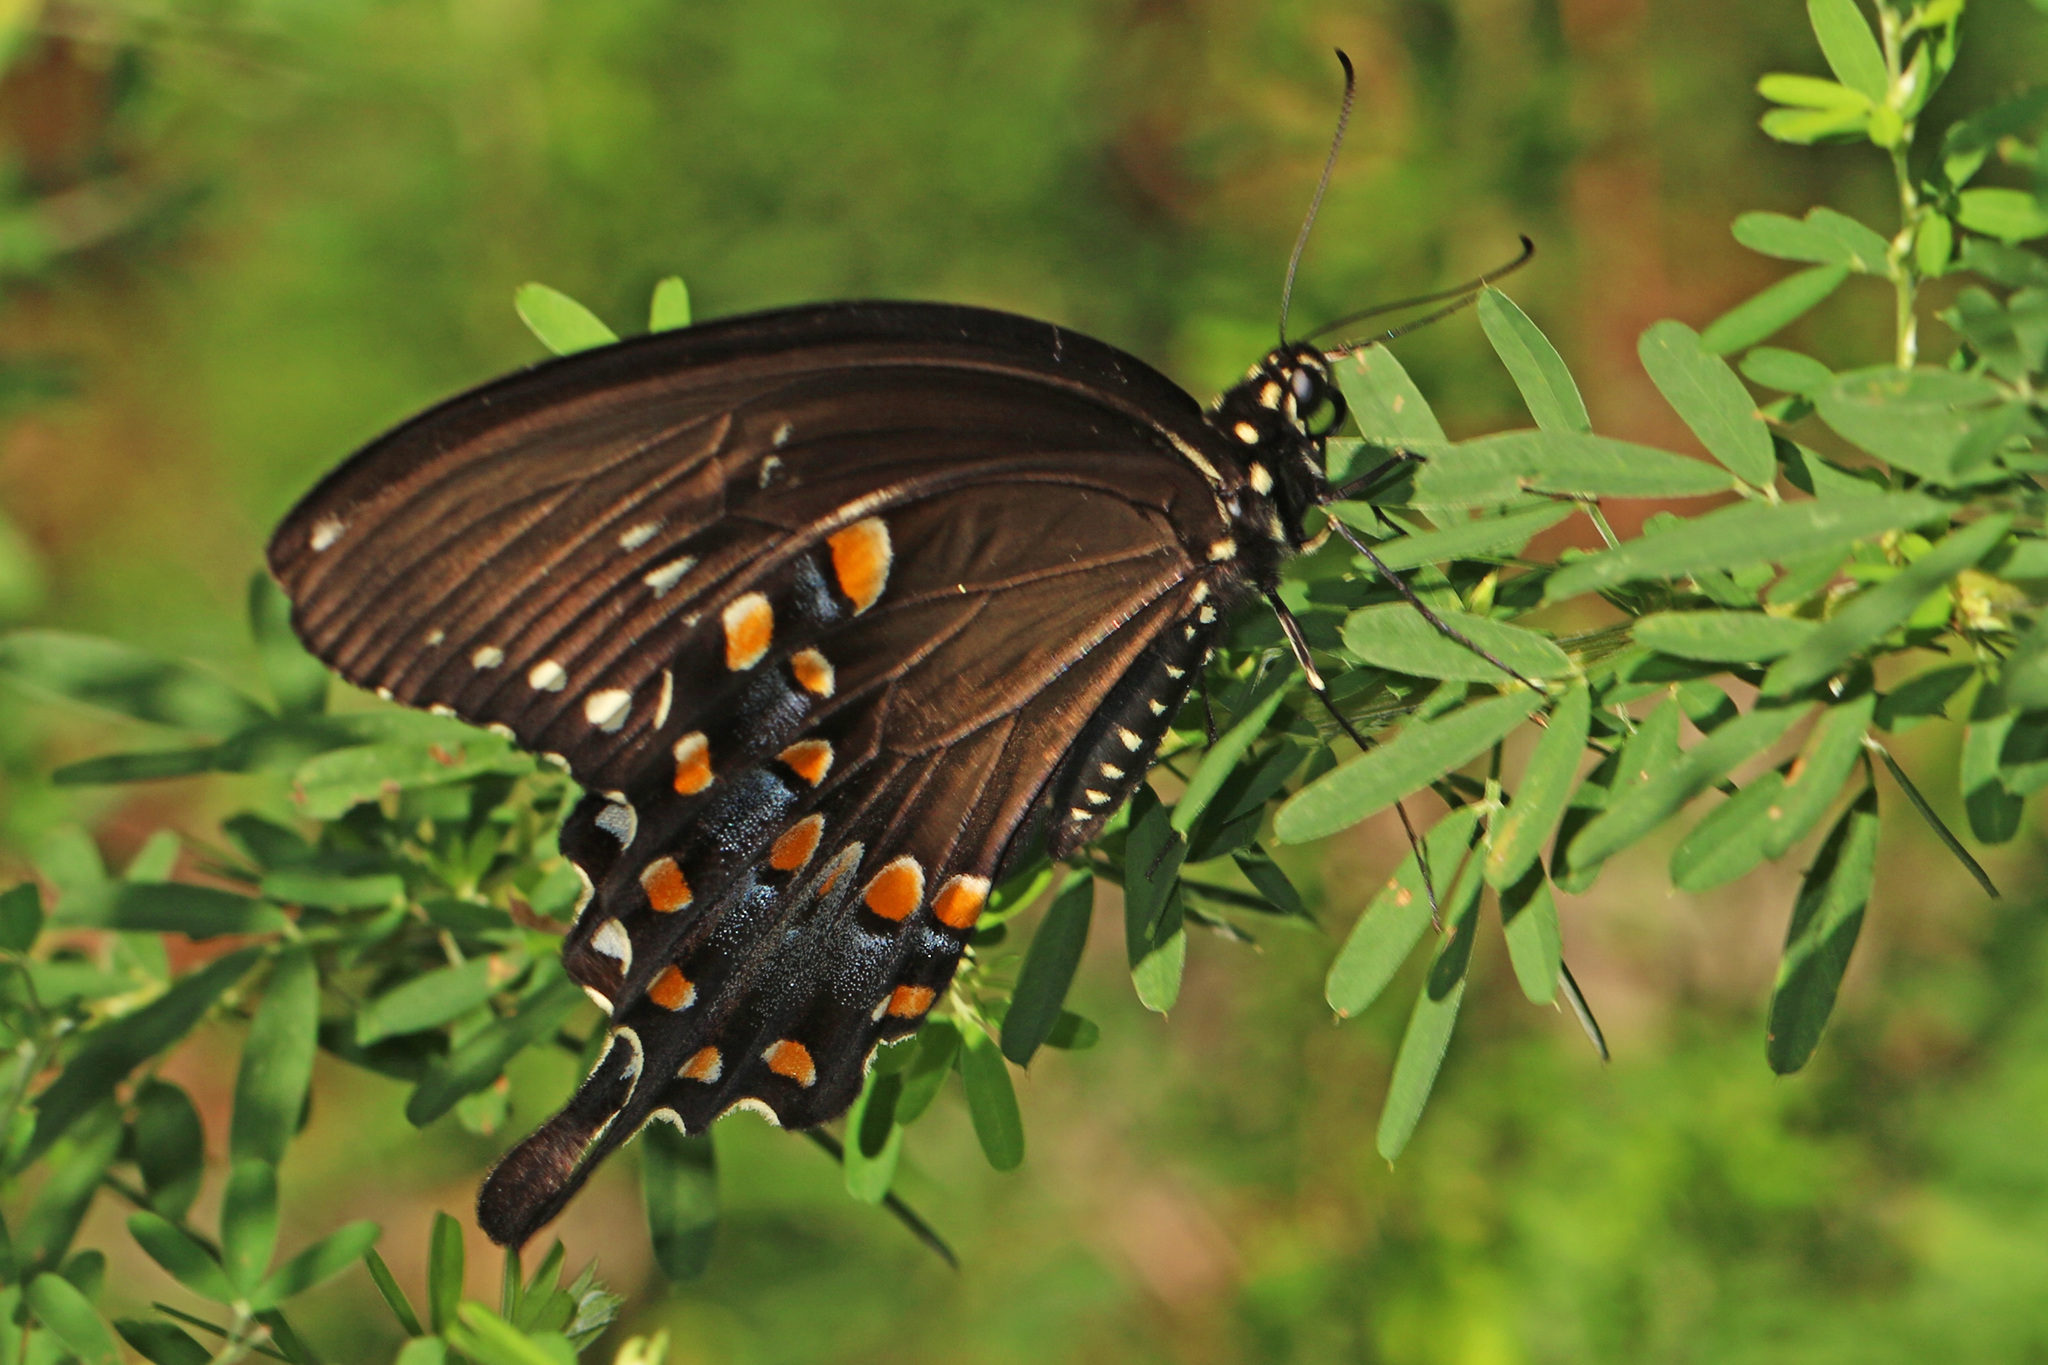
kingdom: Animalia
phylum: Arthropoda
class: Insecta
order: Lepidoptera
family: Papilionidae
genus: Papilio
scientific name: Papilio troilus
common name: Spicebush swallowtail
